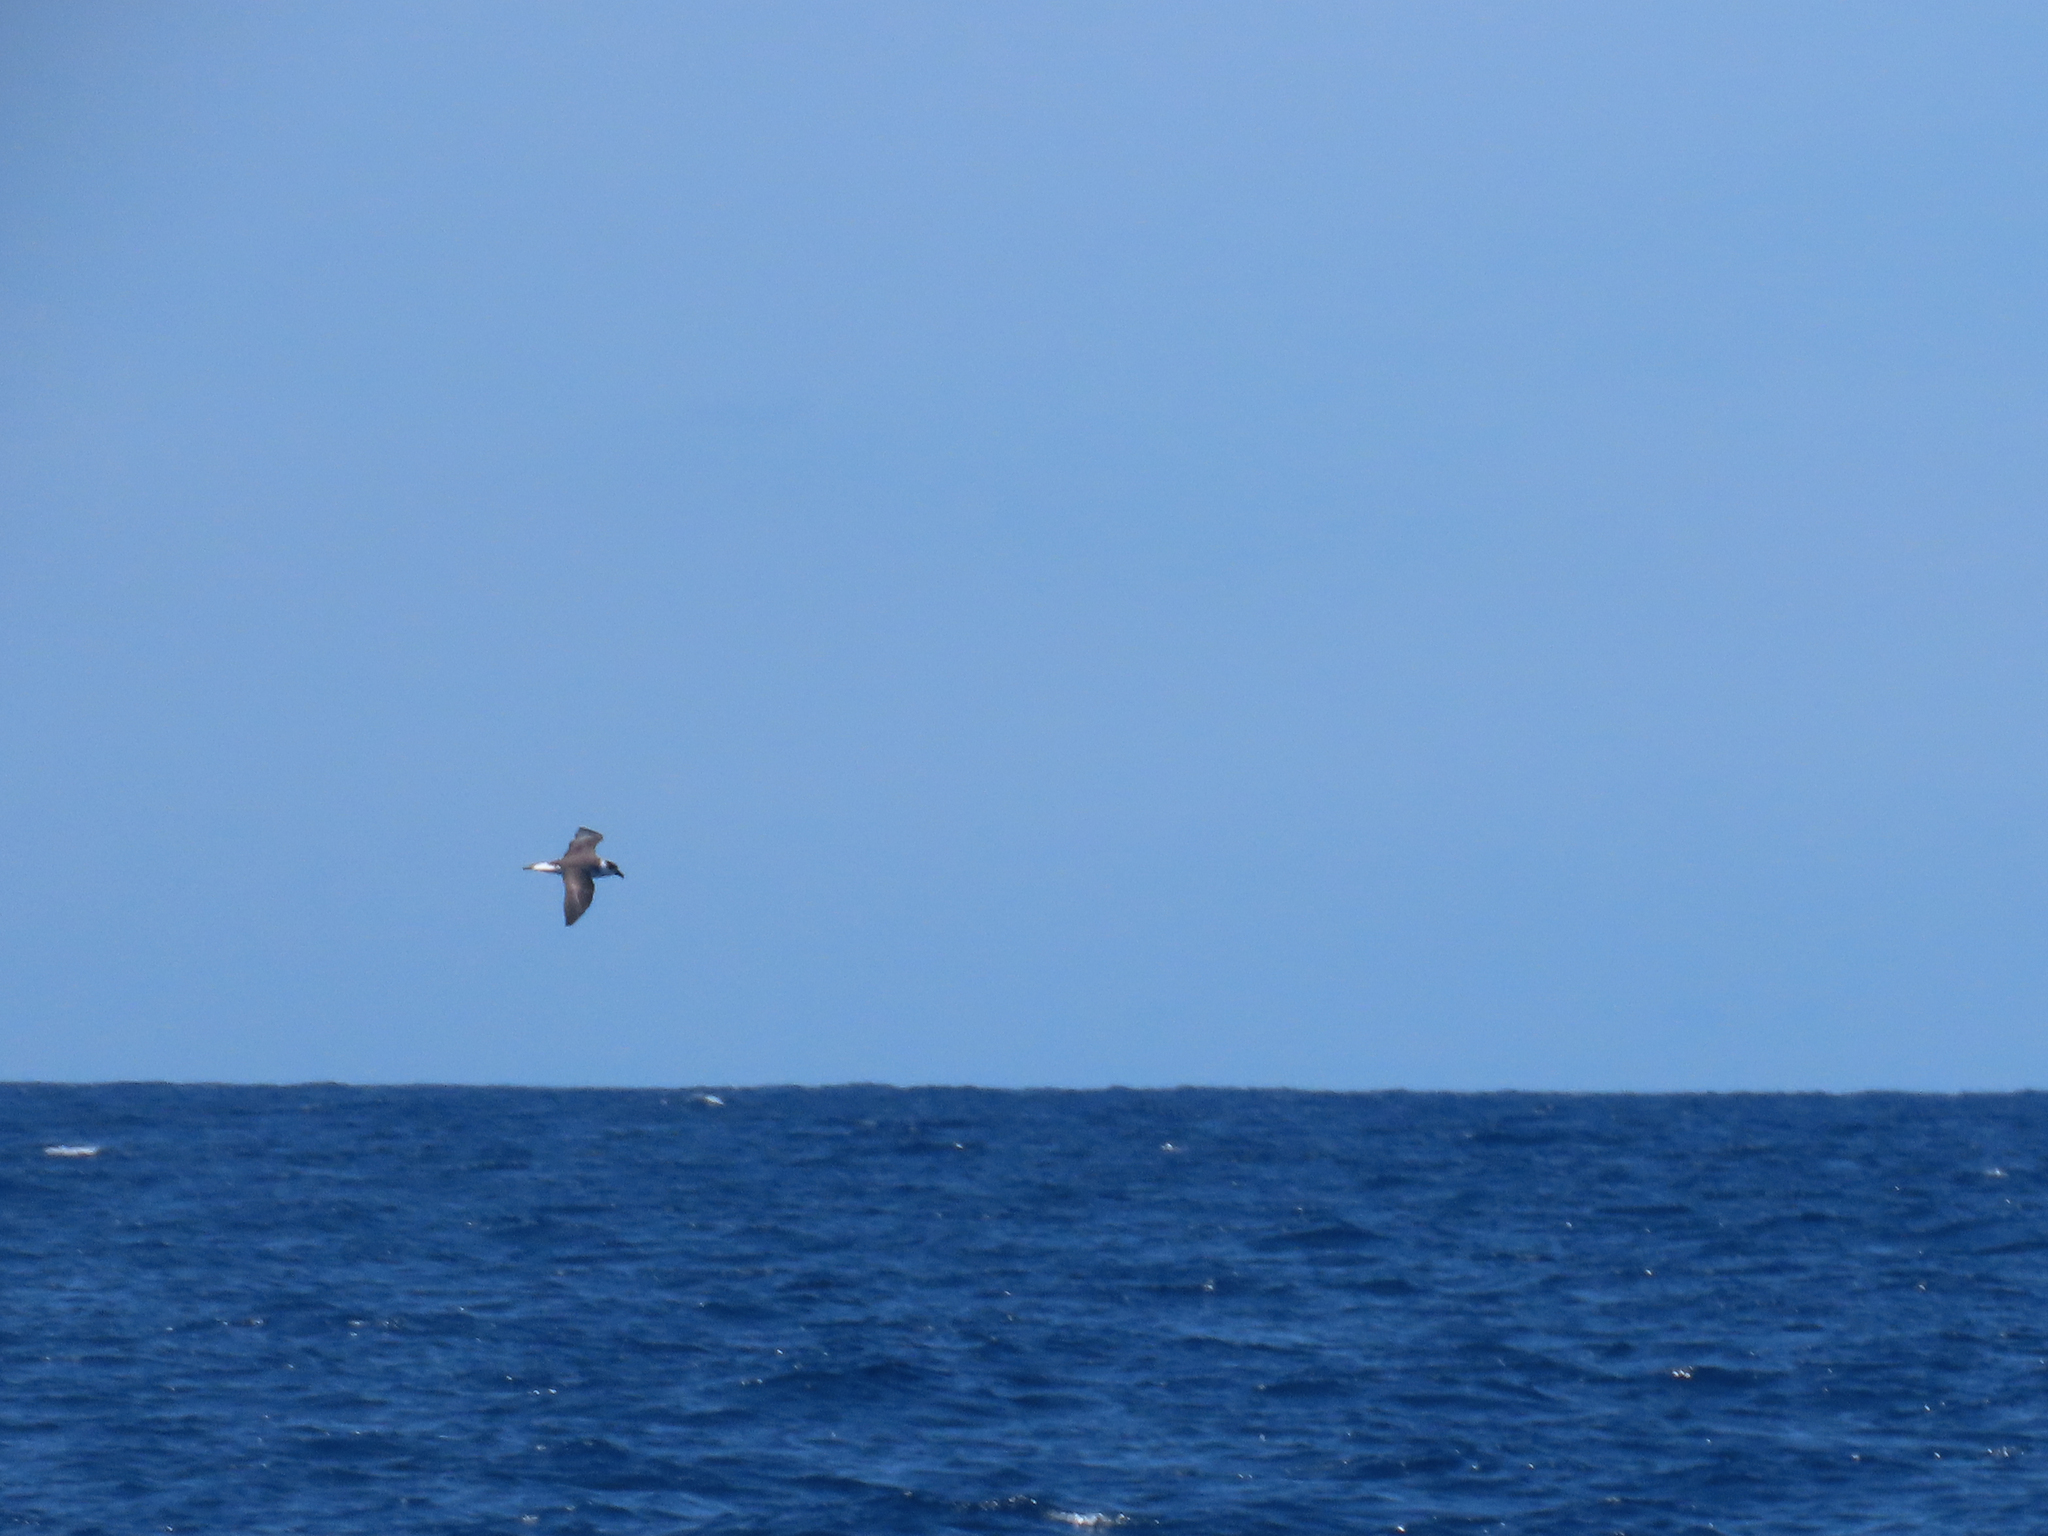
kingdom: Animalia
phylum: Chordata
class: Aves
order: Procellariiformes
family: Procellariidae
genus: Pterodroma
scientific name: Pterodroma hasitata
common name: Black-capped petrel
